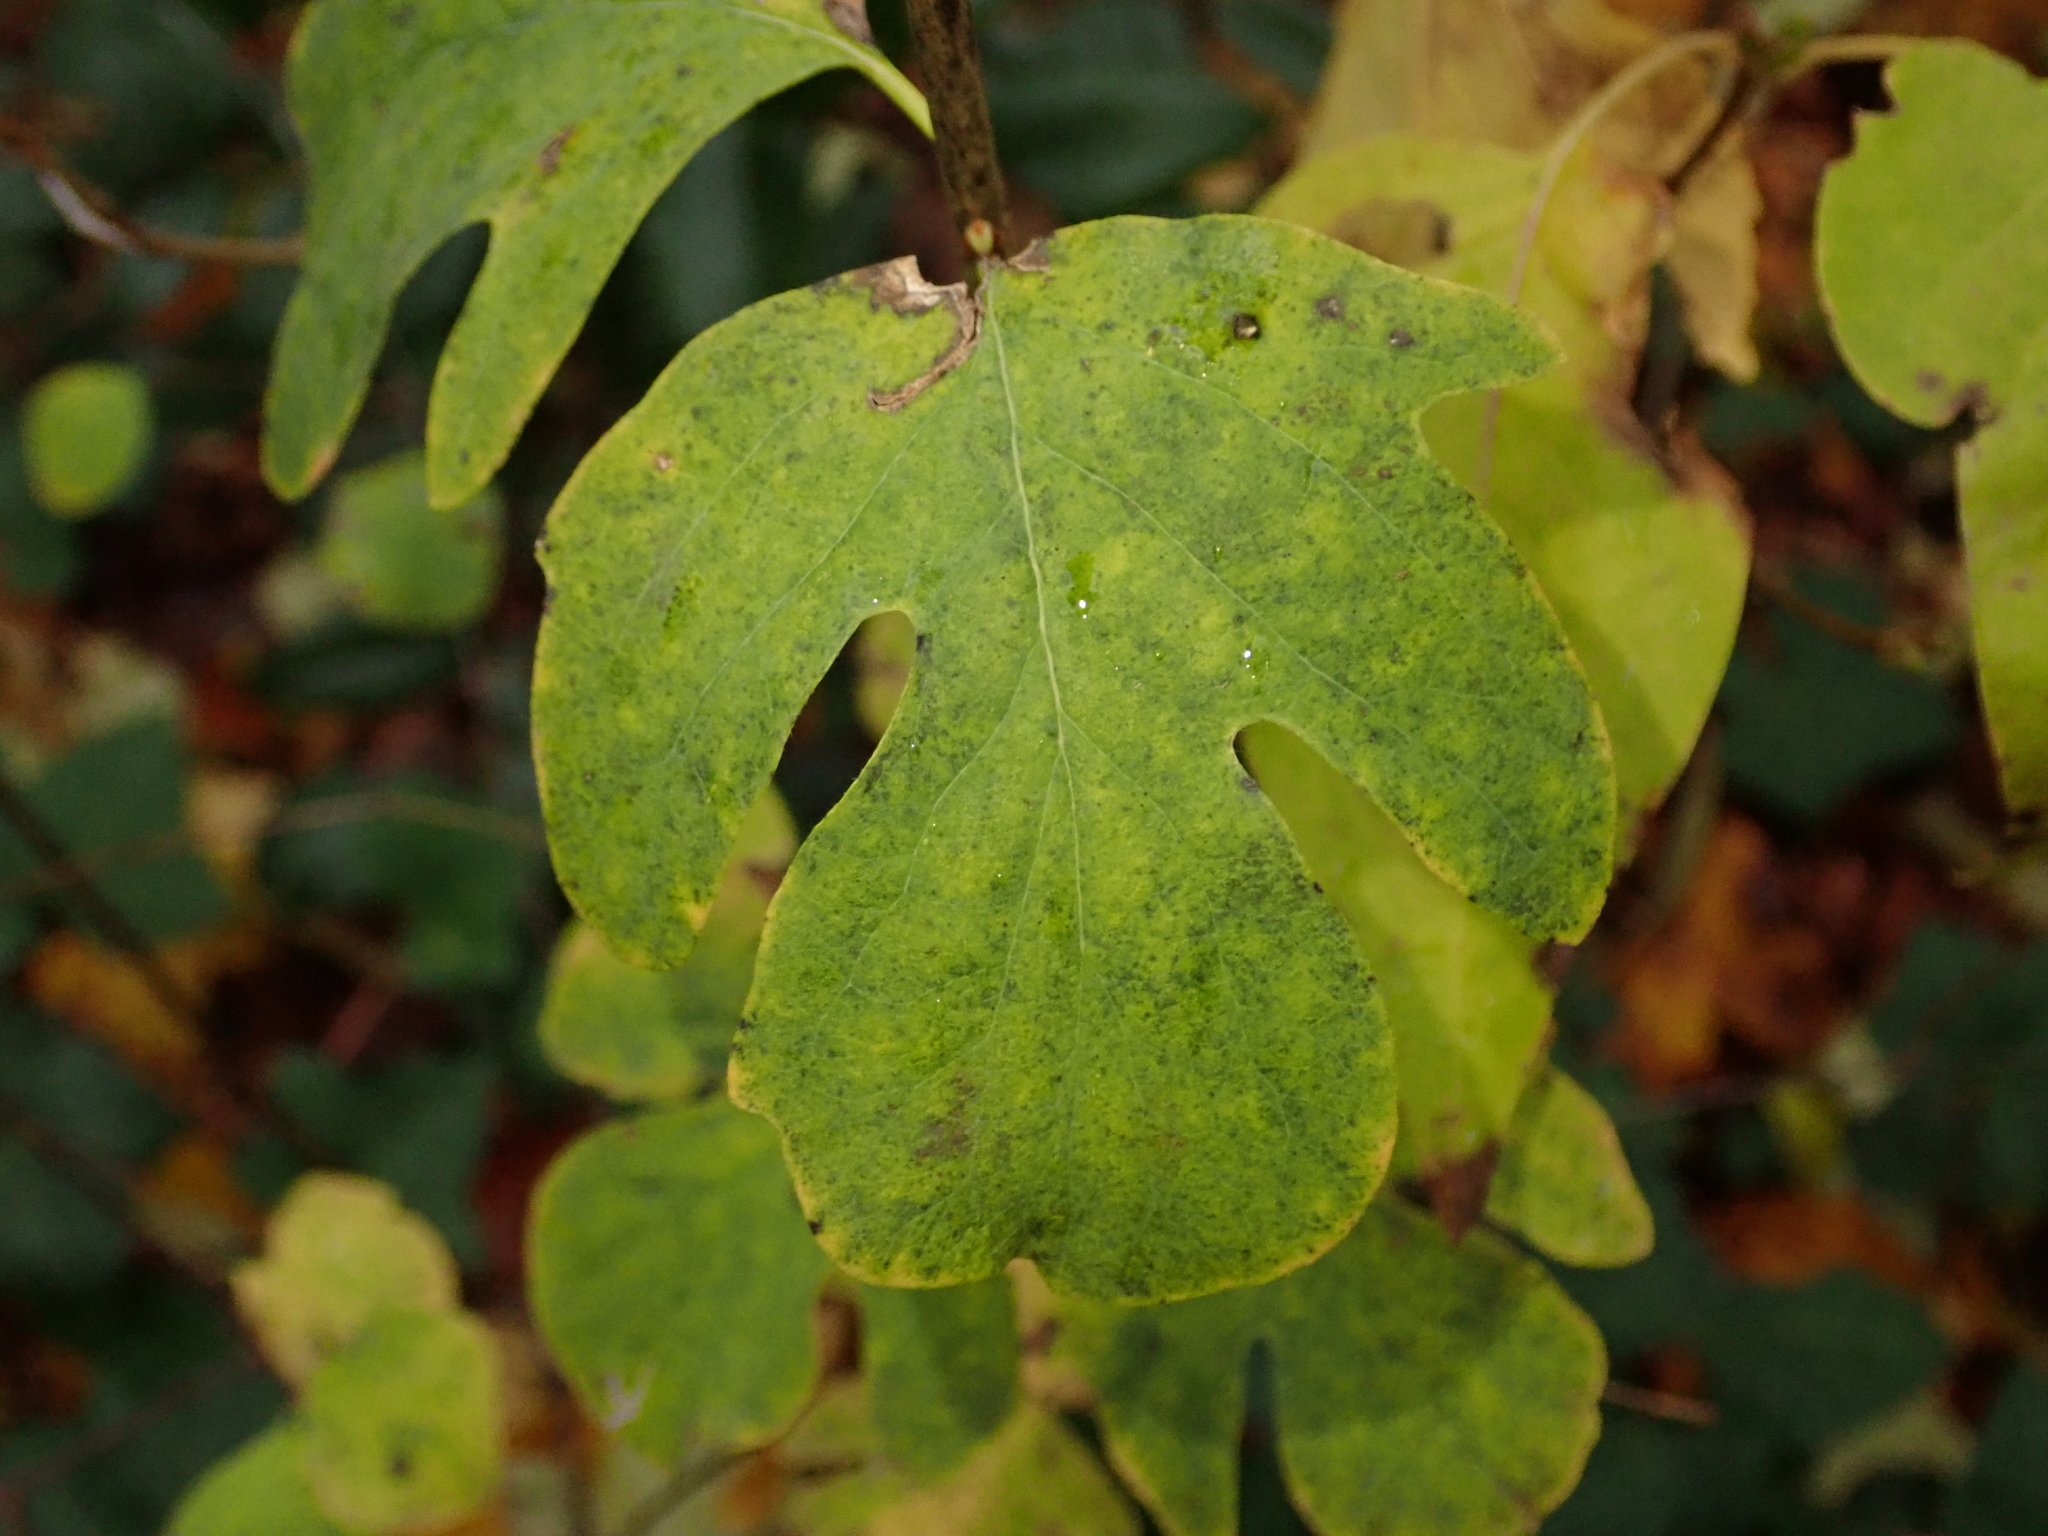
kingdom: Plantae
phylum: Tracheophyta
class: Magnoliopsida
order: Dipsacales
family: Caprifoliaceae
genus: Symphoricarpos
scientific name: Symphoricarpos albus
